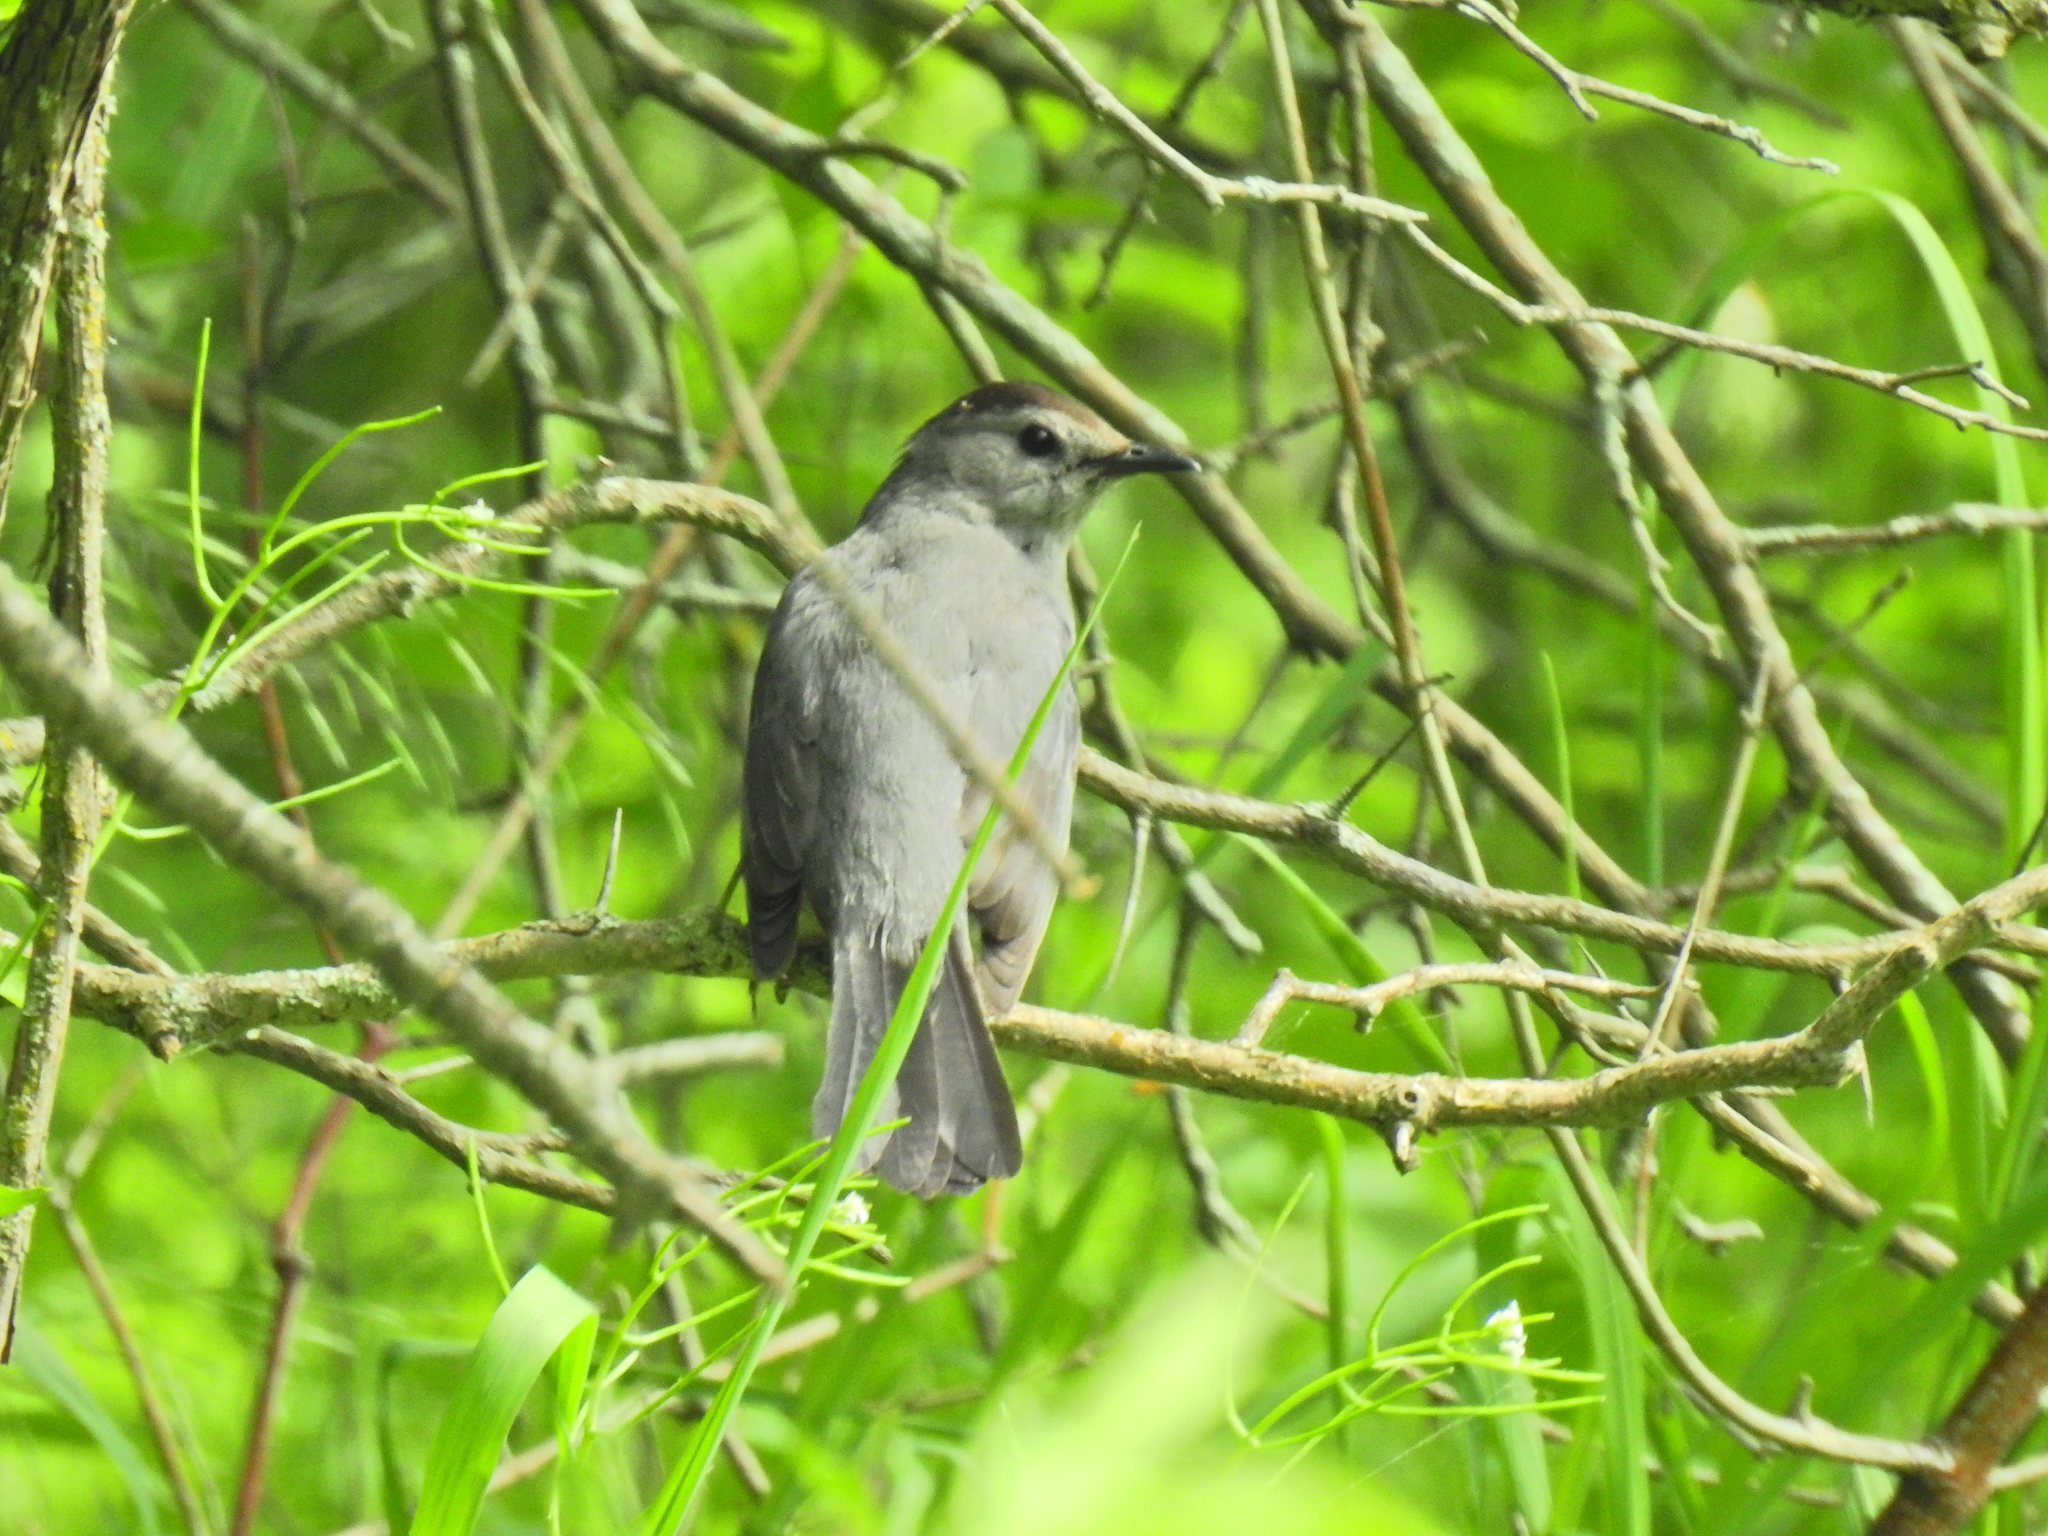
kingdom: Animalia
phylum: Chordata
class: Aves
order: Passeriformes
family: Mimidae
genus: Dumetella
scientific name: Dumetella carolinensis
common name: Gray catbird
